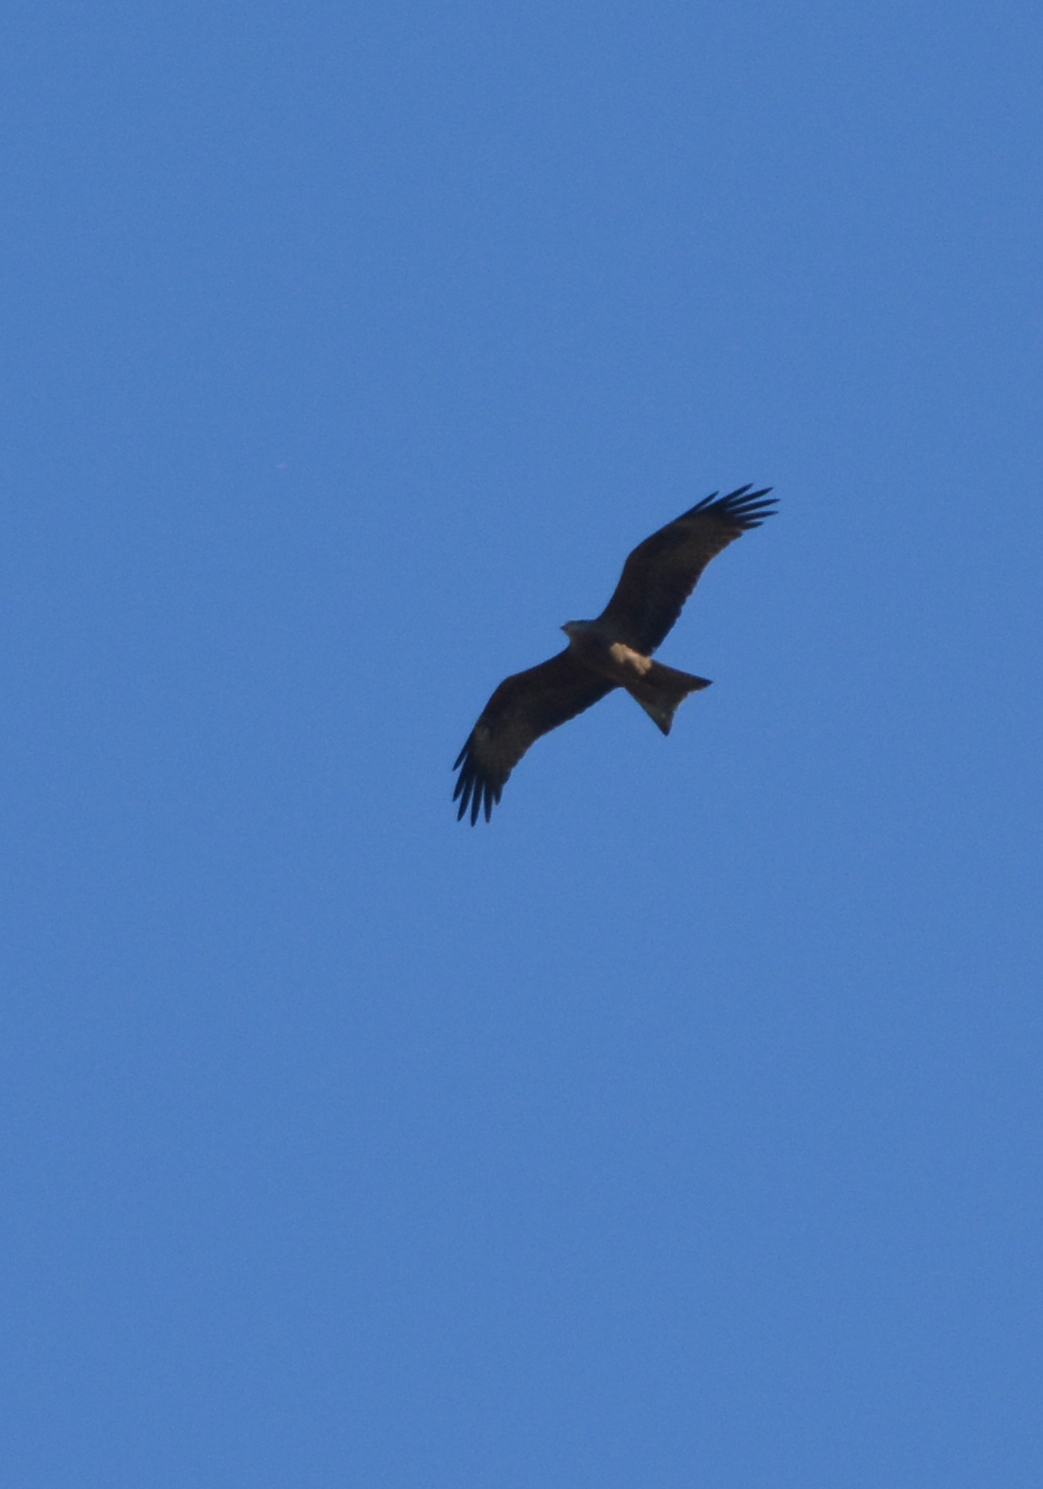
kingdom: Animalia
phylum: Chordata
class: Aves
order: Accipitriformes
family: Accipitridae
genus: Milvus
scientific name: Milvus migrans
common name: Black kite
